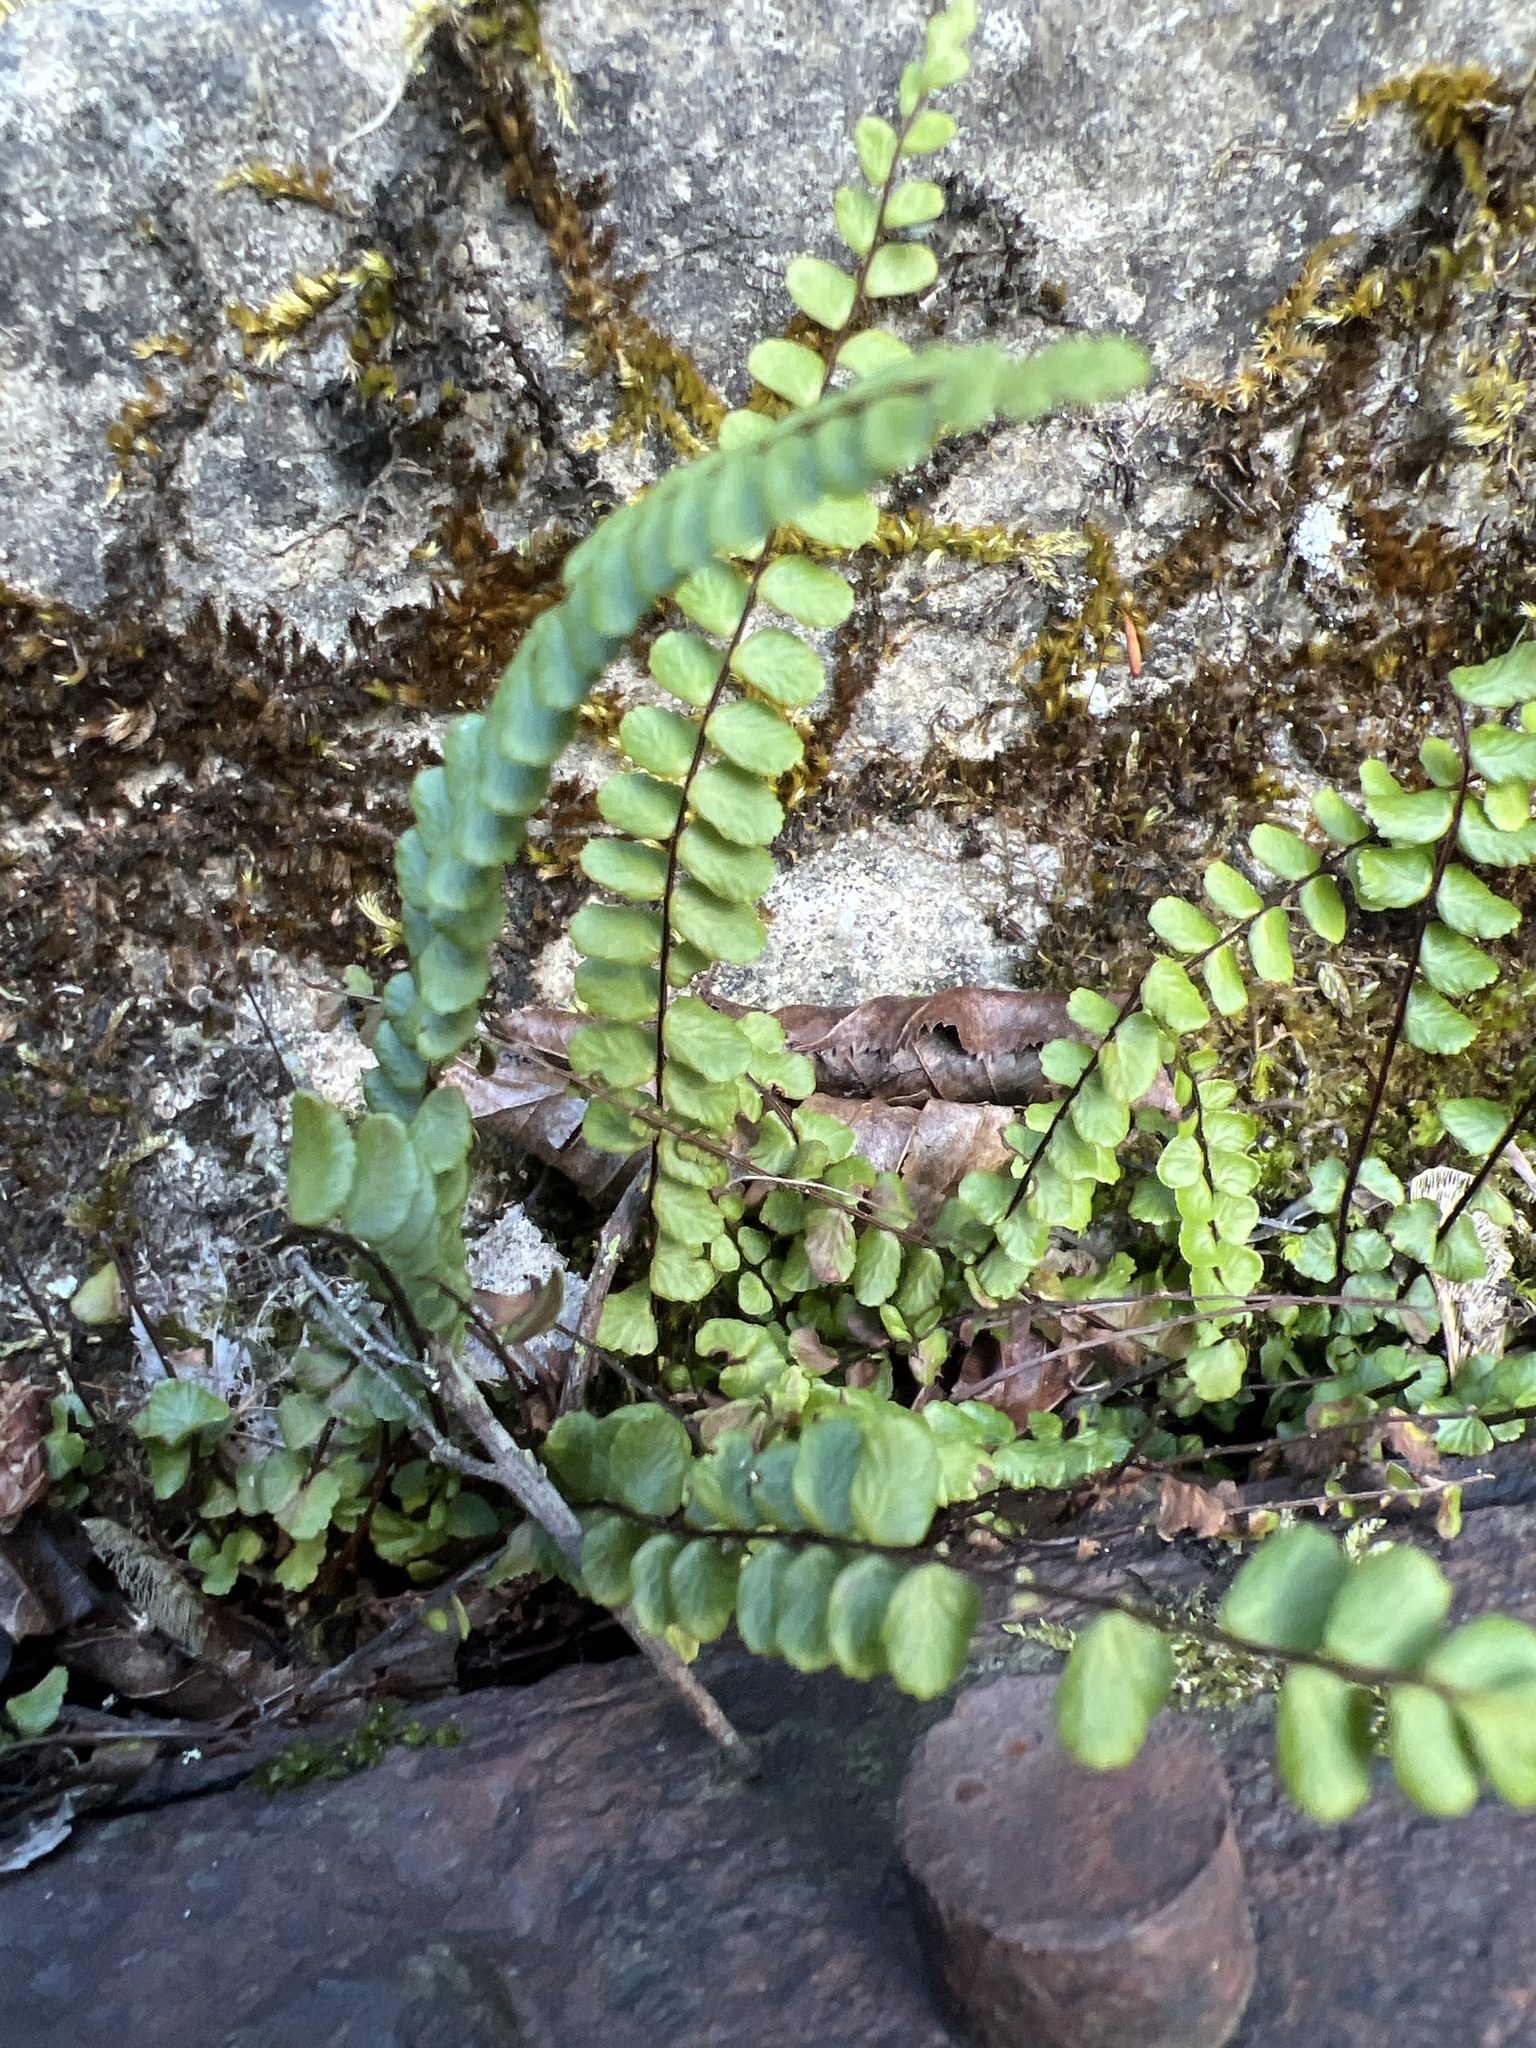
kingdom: Plantae
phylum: Tracheophyta
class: Polypodiopsida
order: Polypodiales
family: Aspleniaceae
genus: Asplenium
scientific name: Asplenium trichomanes
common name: Maidenhair spleenwort
